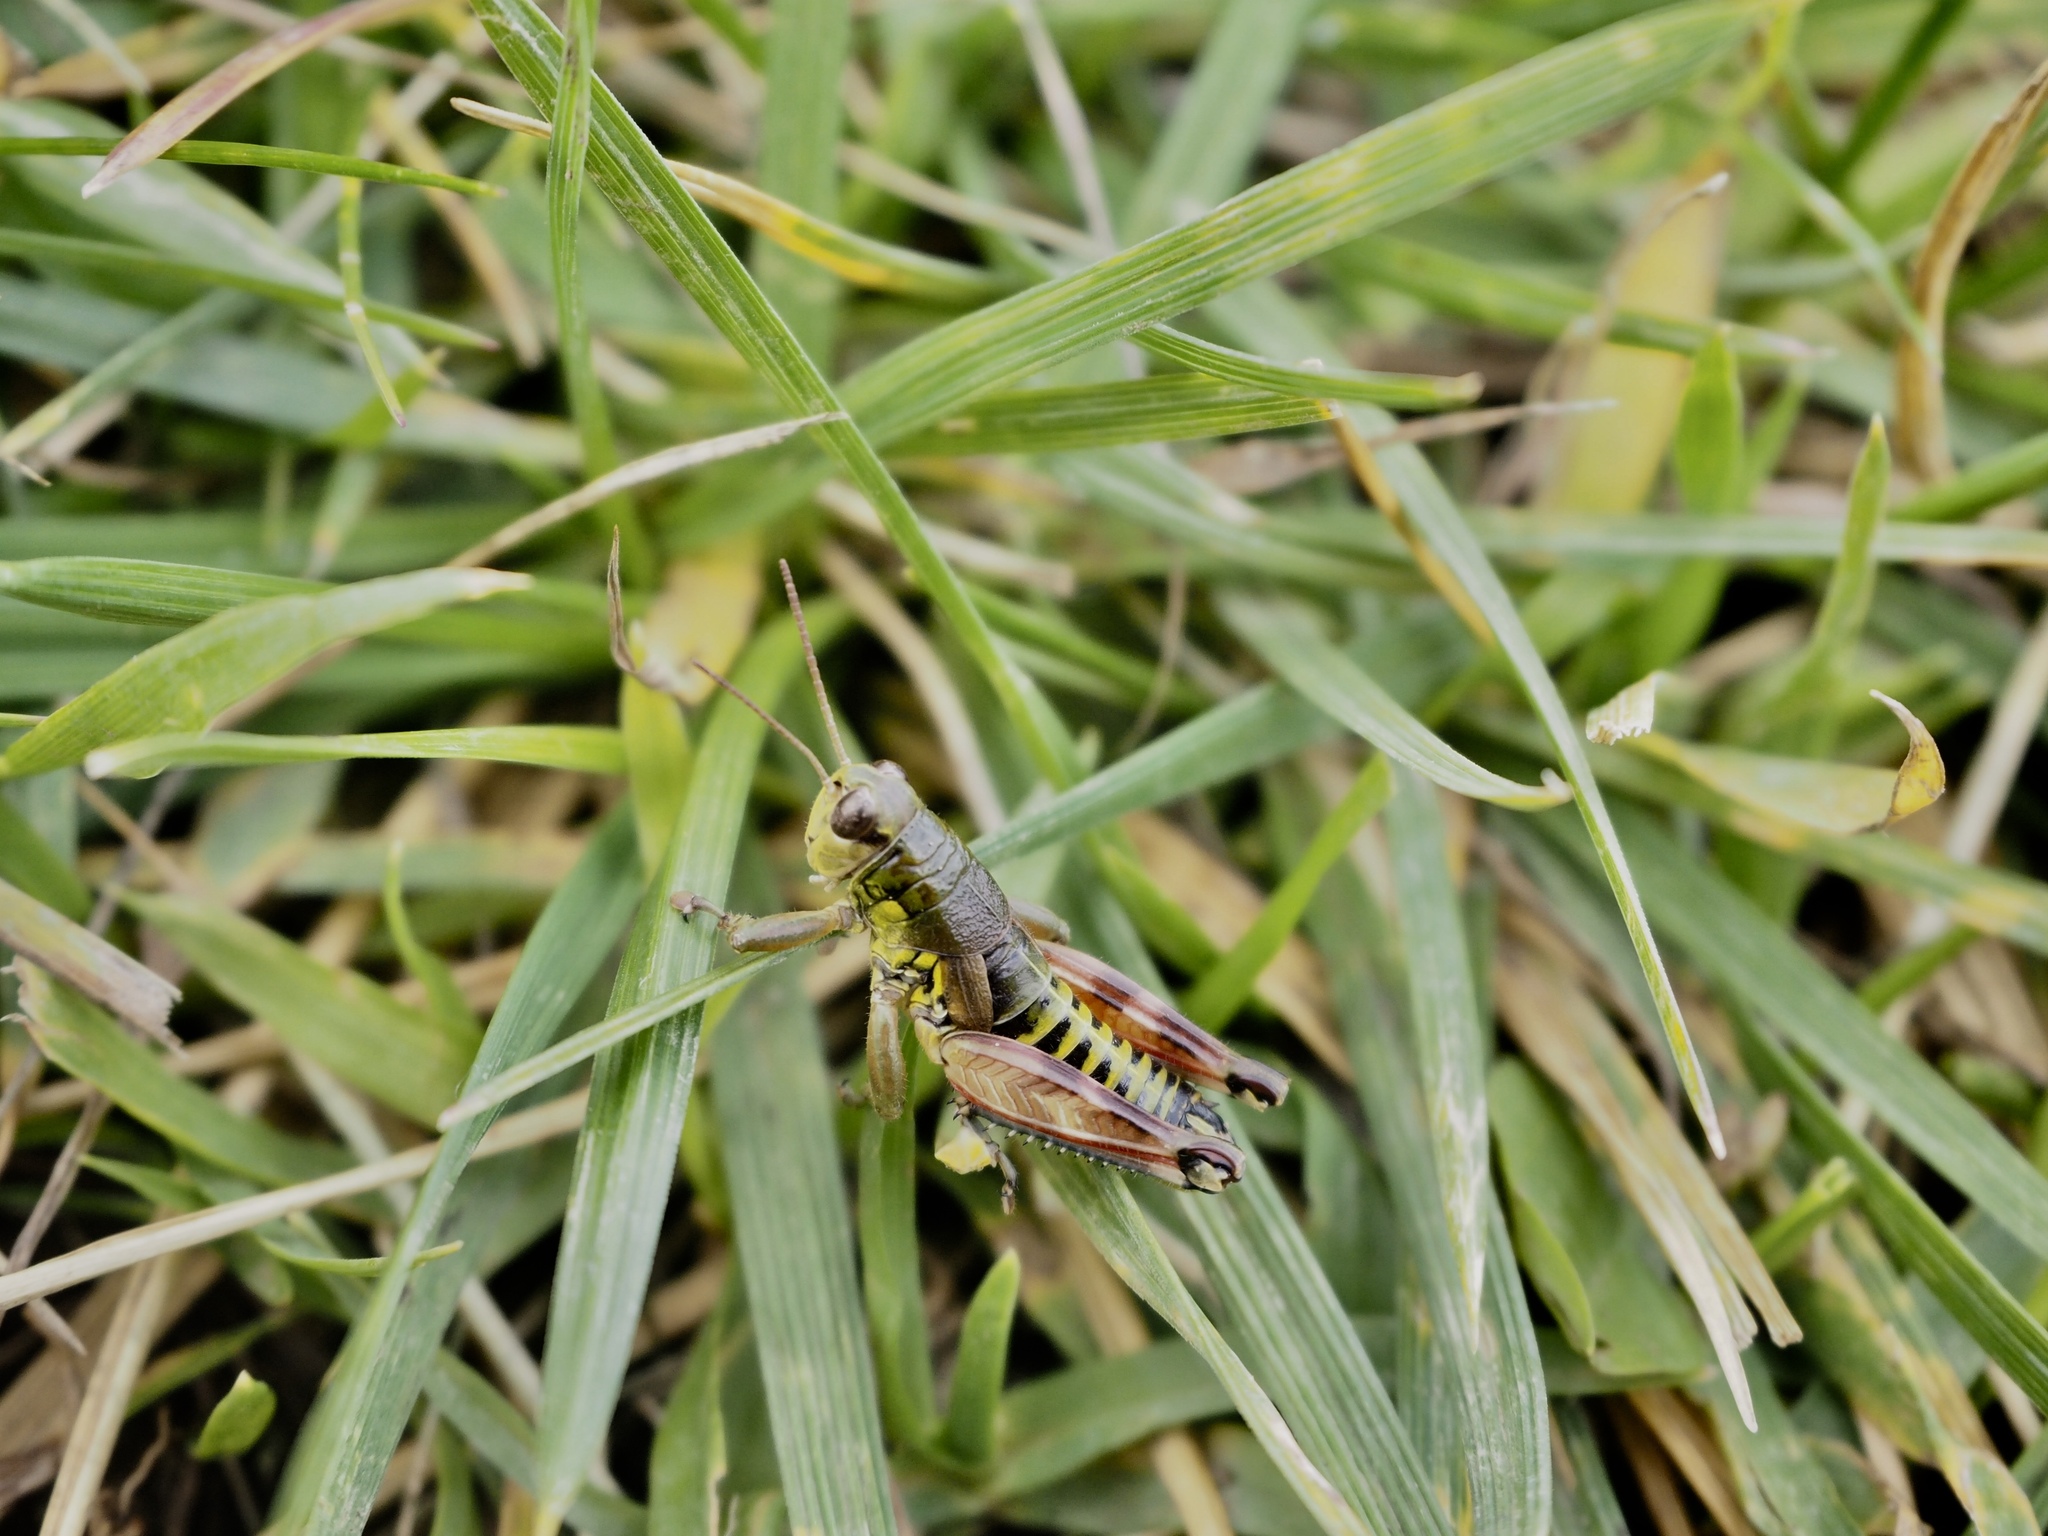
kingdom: Animalia
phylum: Arthropoda
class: Insecta
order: Orthoptera
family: Acrididae
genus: Podisma
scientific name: Podisma emiliae
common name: Emilia mountain grasshopper
